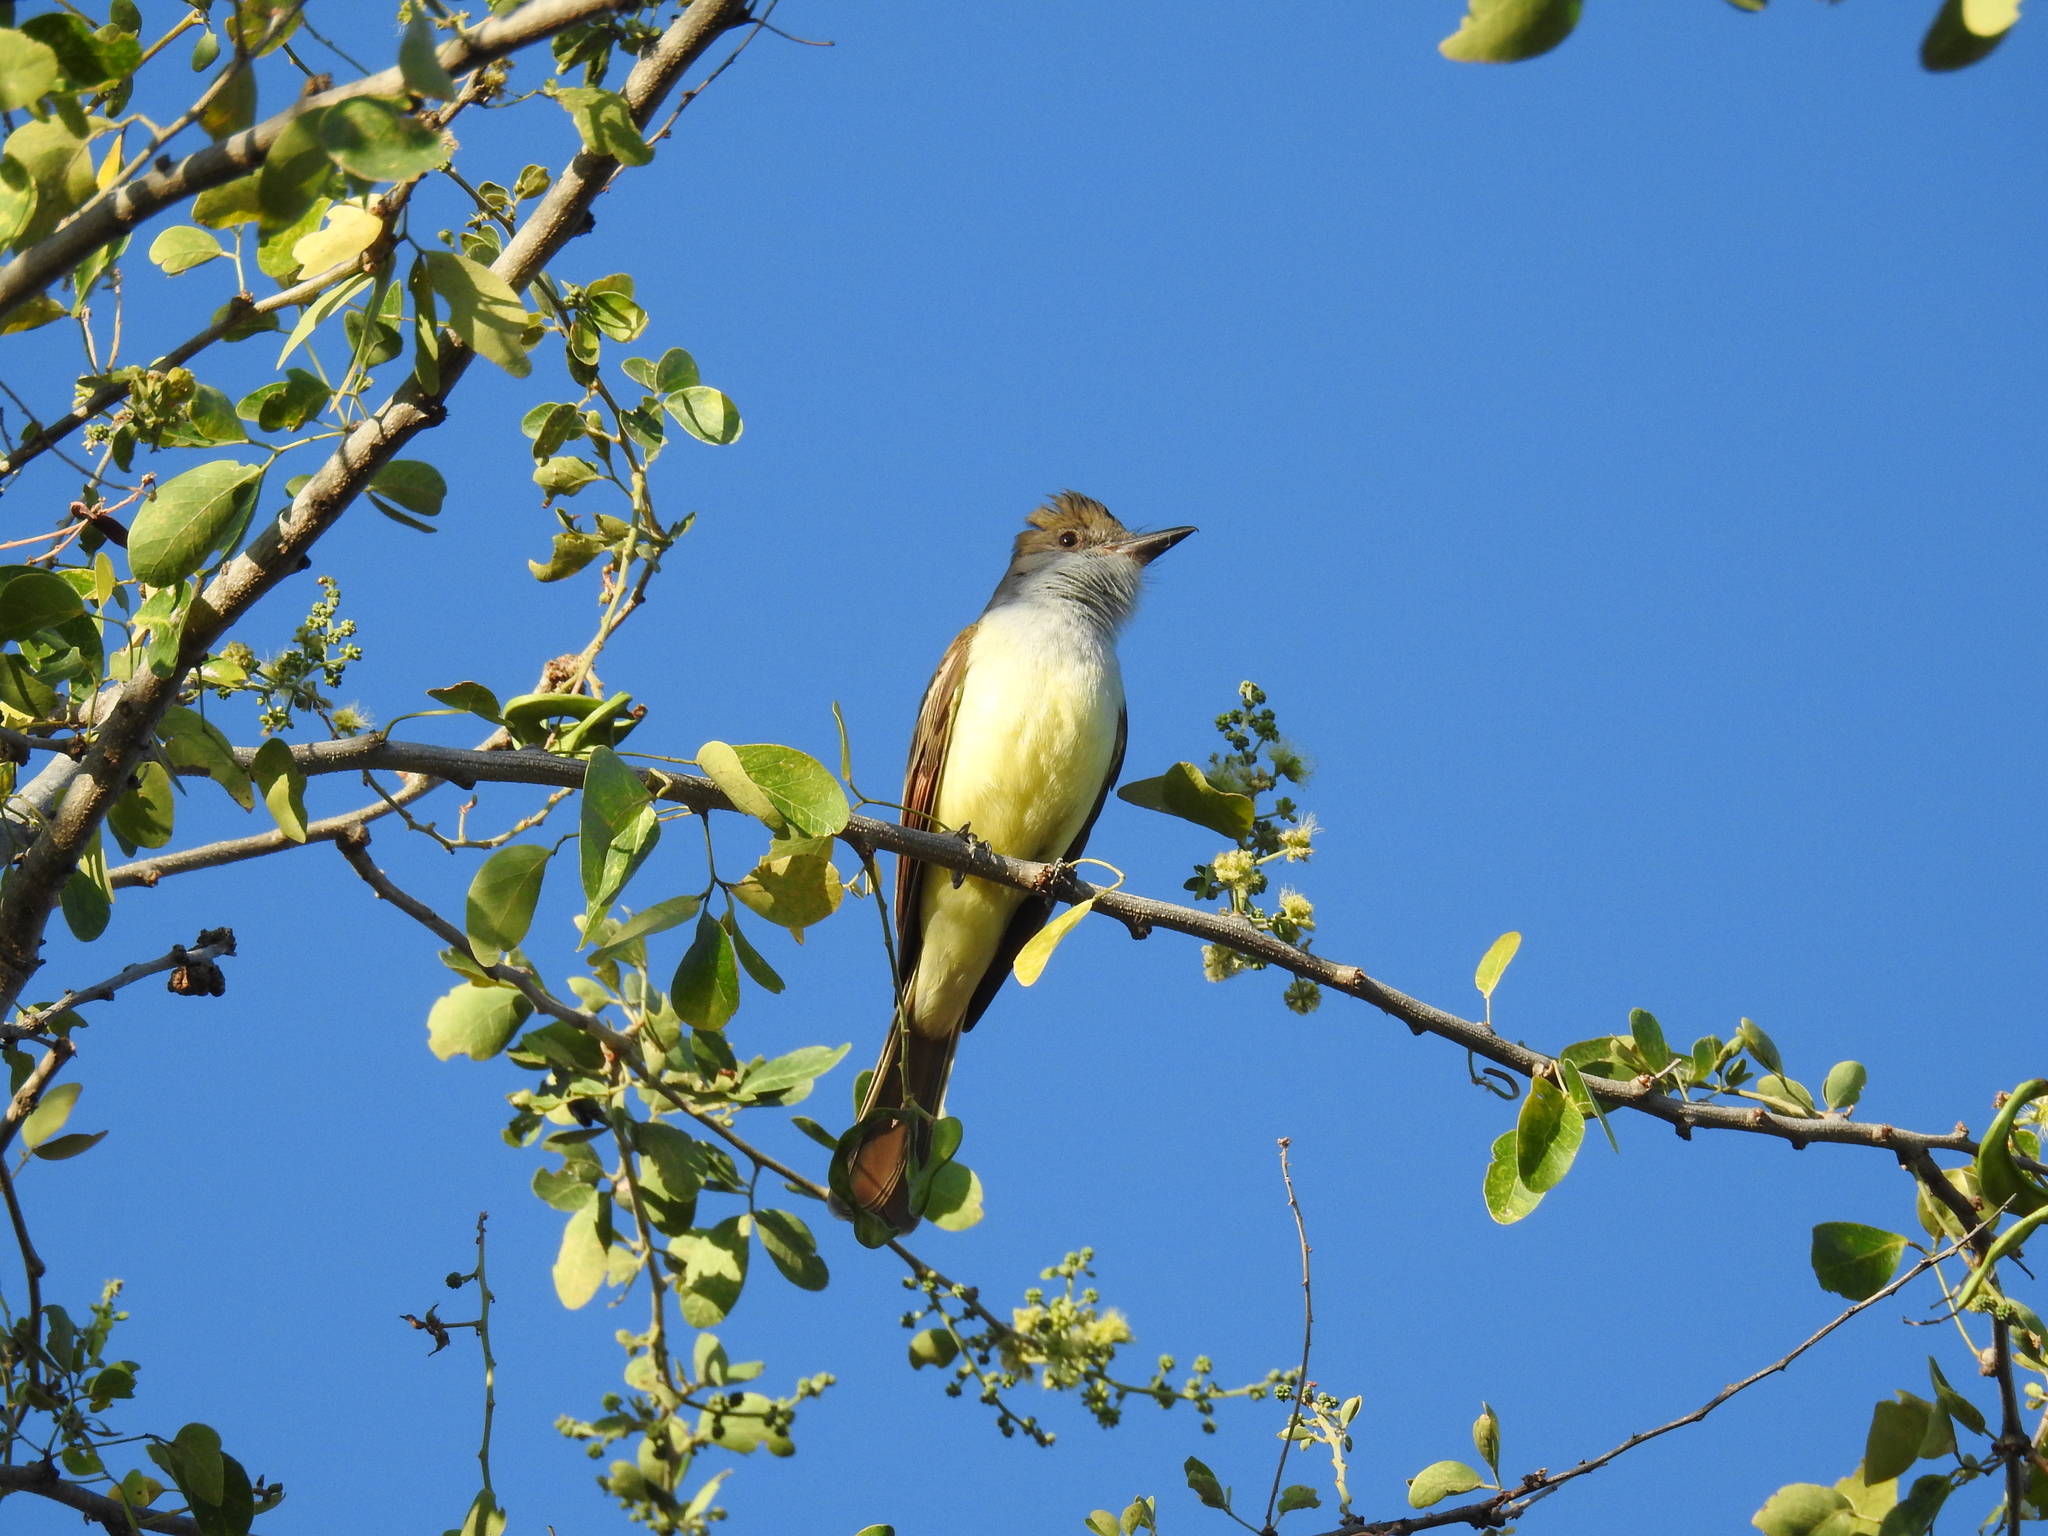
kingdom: Animalia
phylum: Chordata
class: Aves
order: Passeriformes
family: Tyrannidae
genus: Myiarchus
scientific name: Myiarchus tyrannulus
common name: Brown-crested flycatcher
